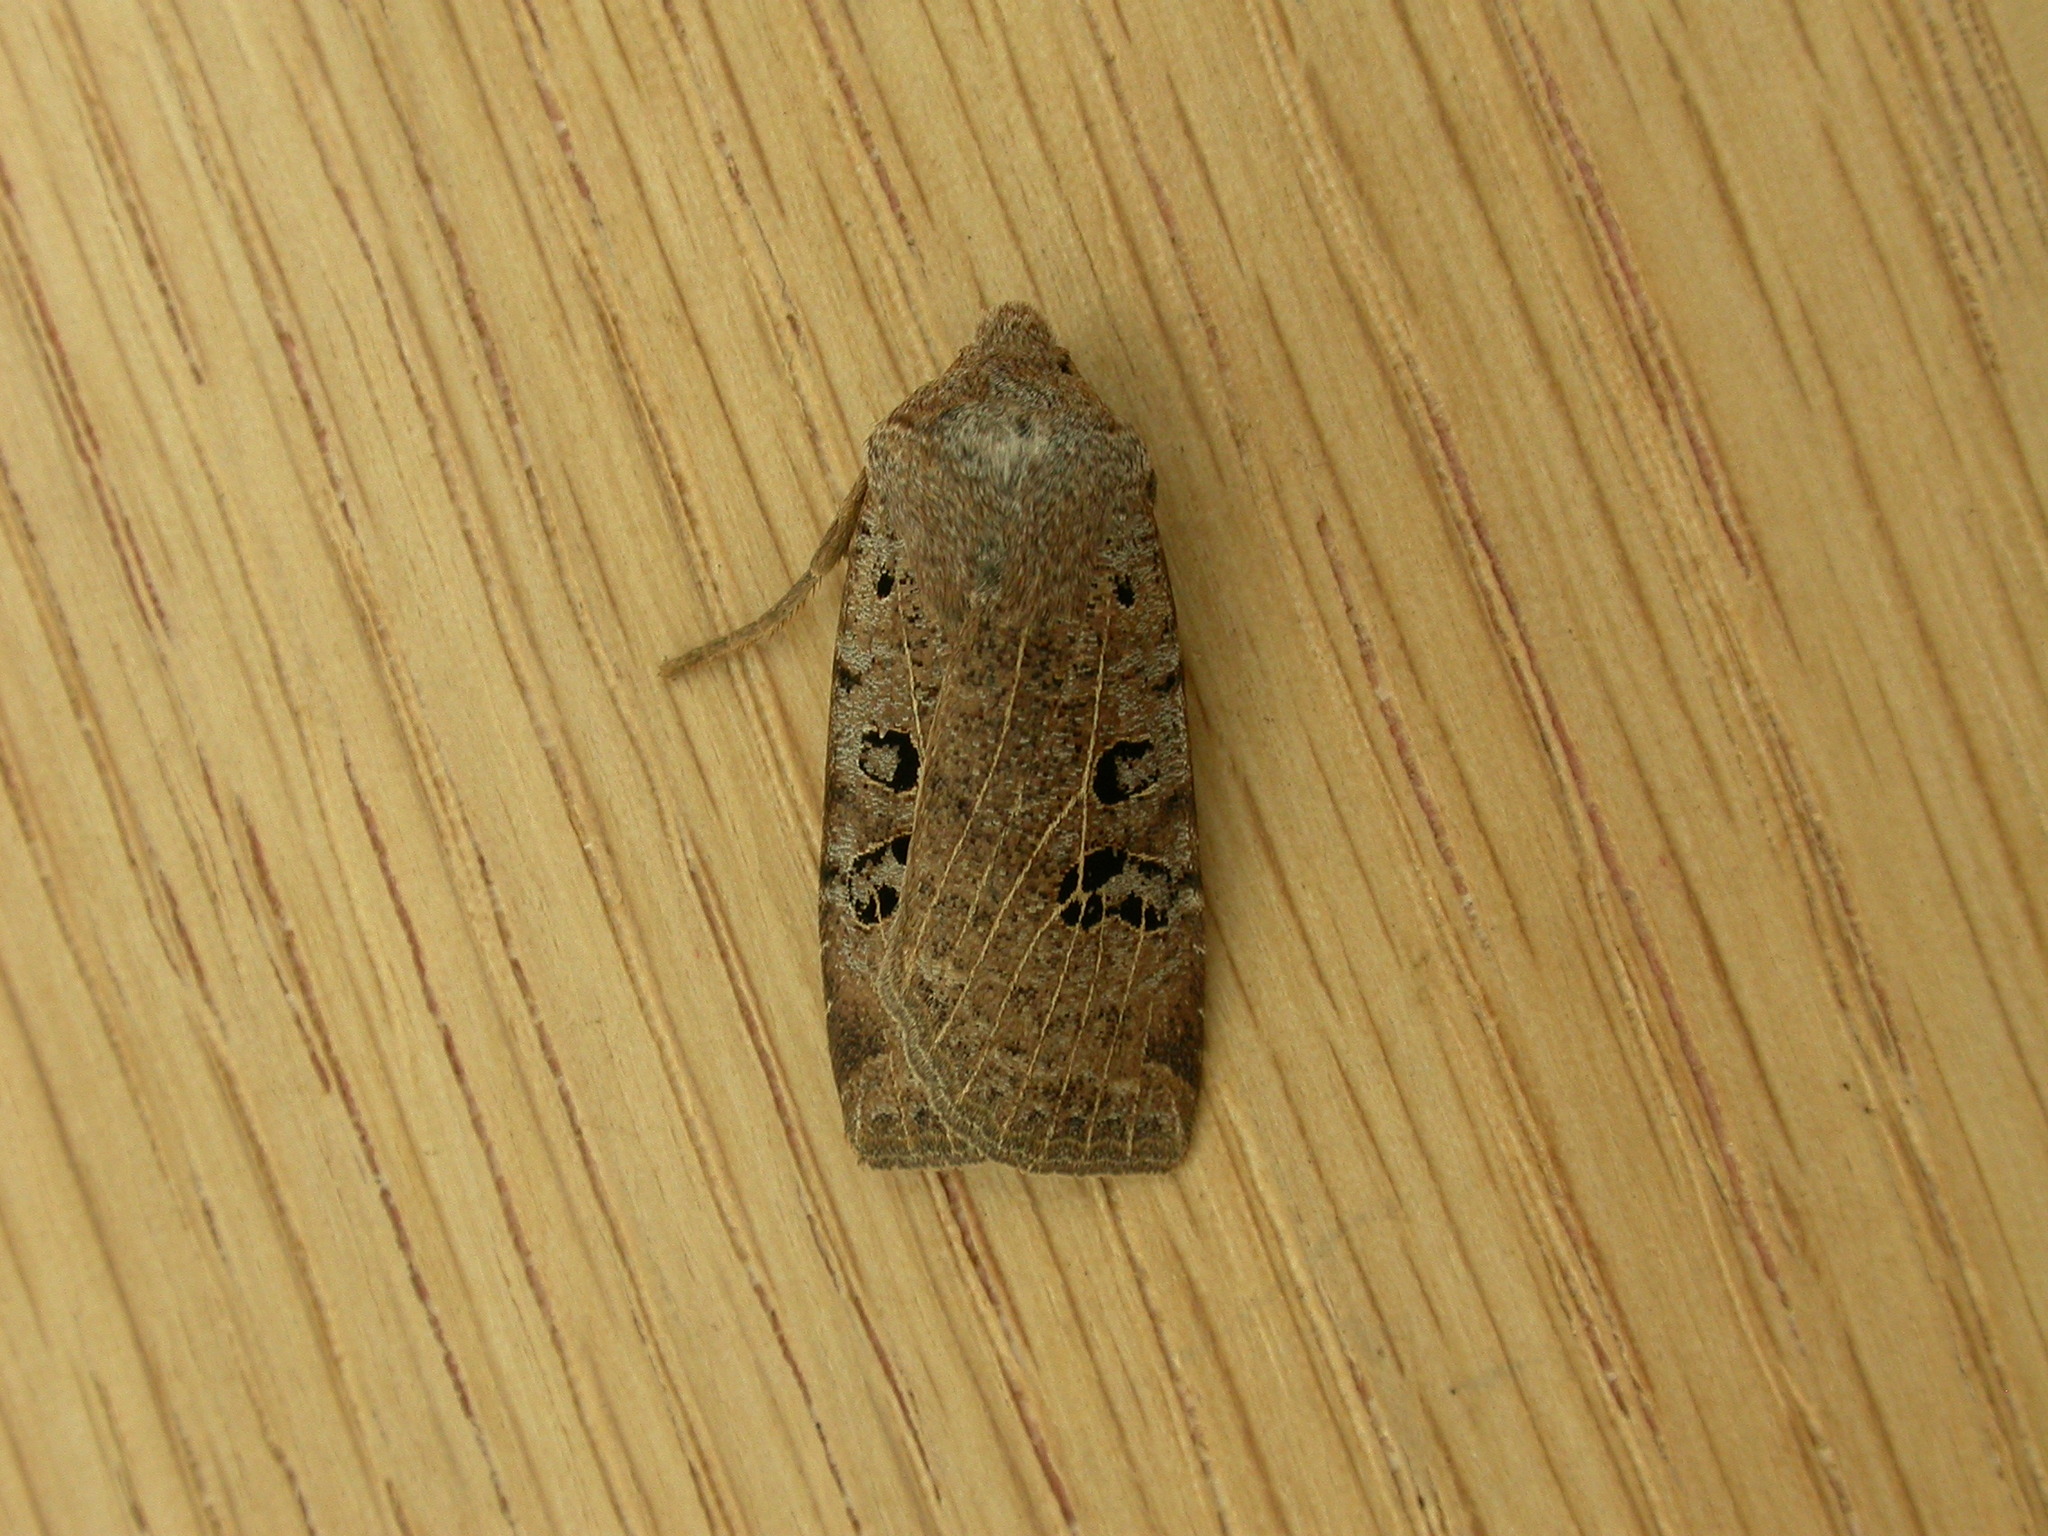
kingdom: Animalia
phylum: Arthropoda
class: Insecta
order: Lepidoptera
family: Noctuidae
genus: Conistra
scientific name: Conistra rubiginosa
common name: Black-spotted chestnut
